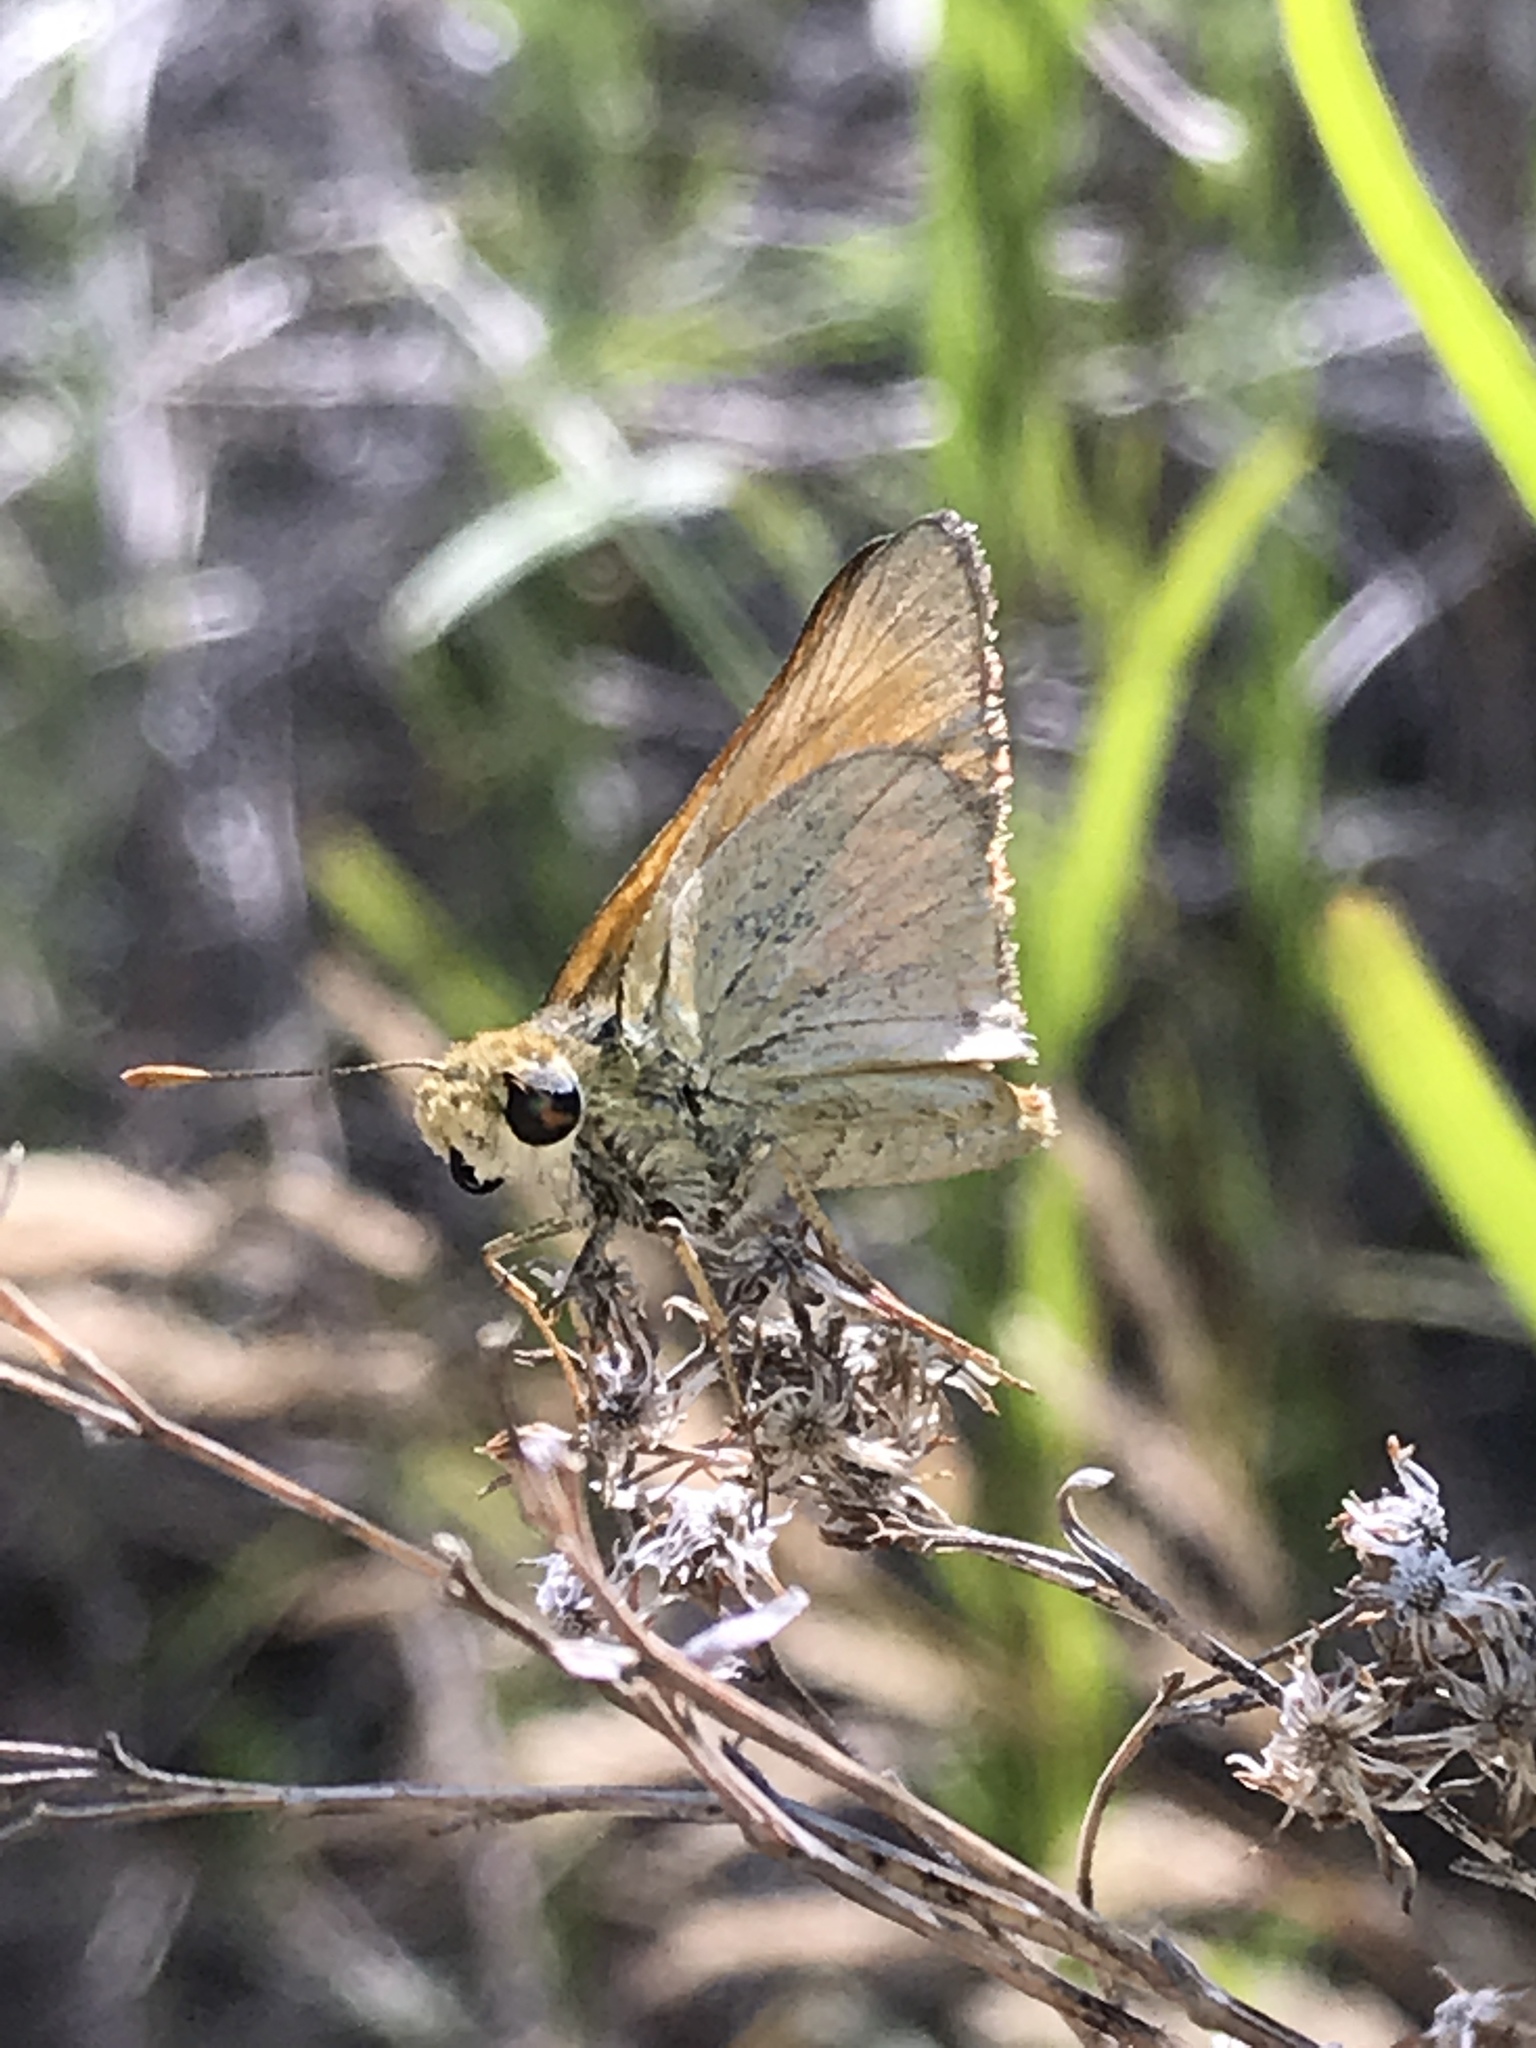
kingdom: Animalia
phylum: Arthropoda
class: Insecta
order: Lepidoptera
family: Hesperiidae
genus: Ochlodes
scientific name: Ochlodes sylvanoides
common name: Woodland skipper
